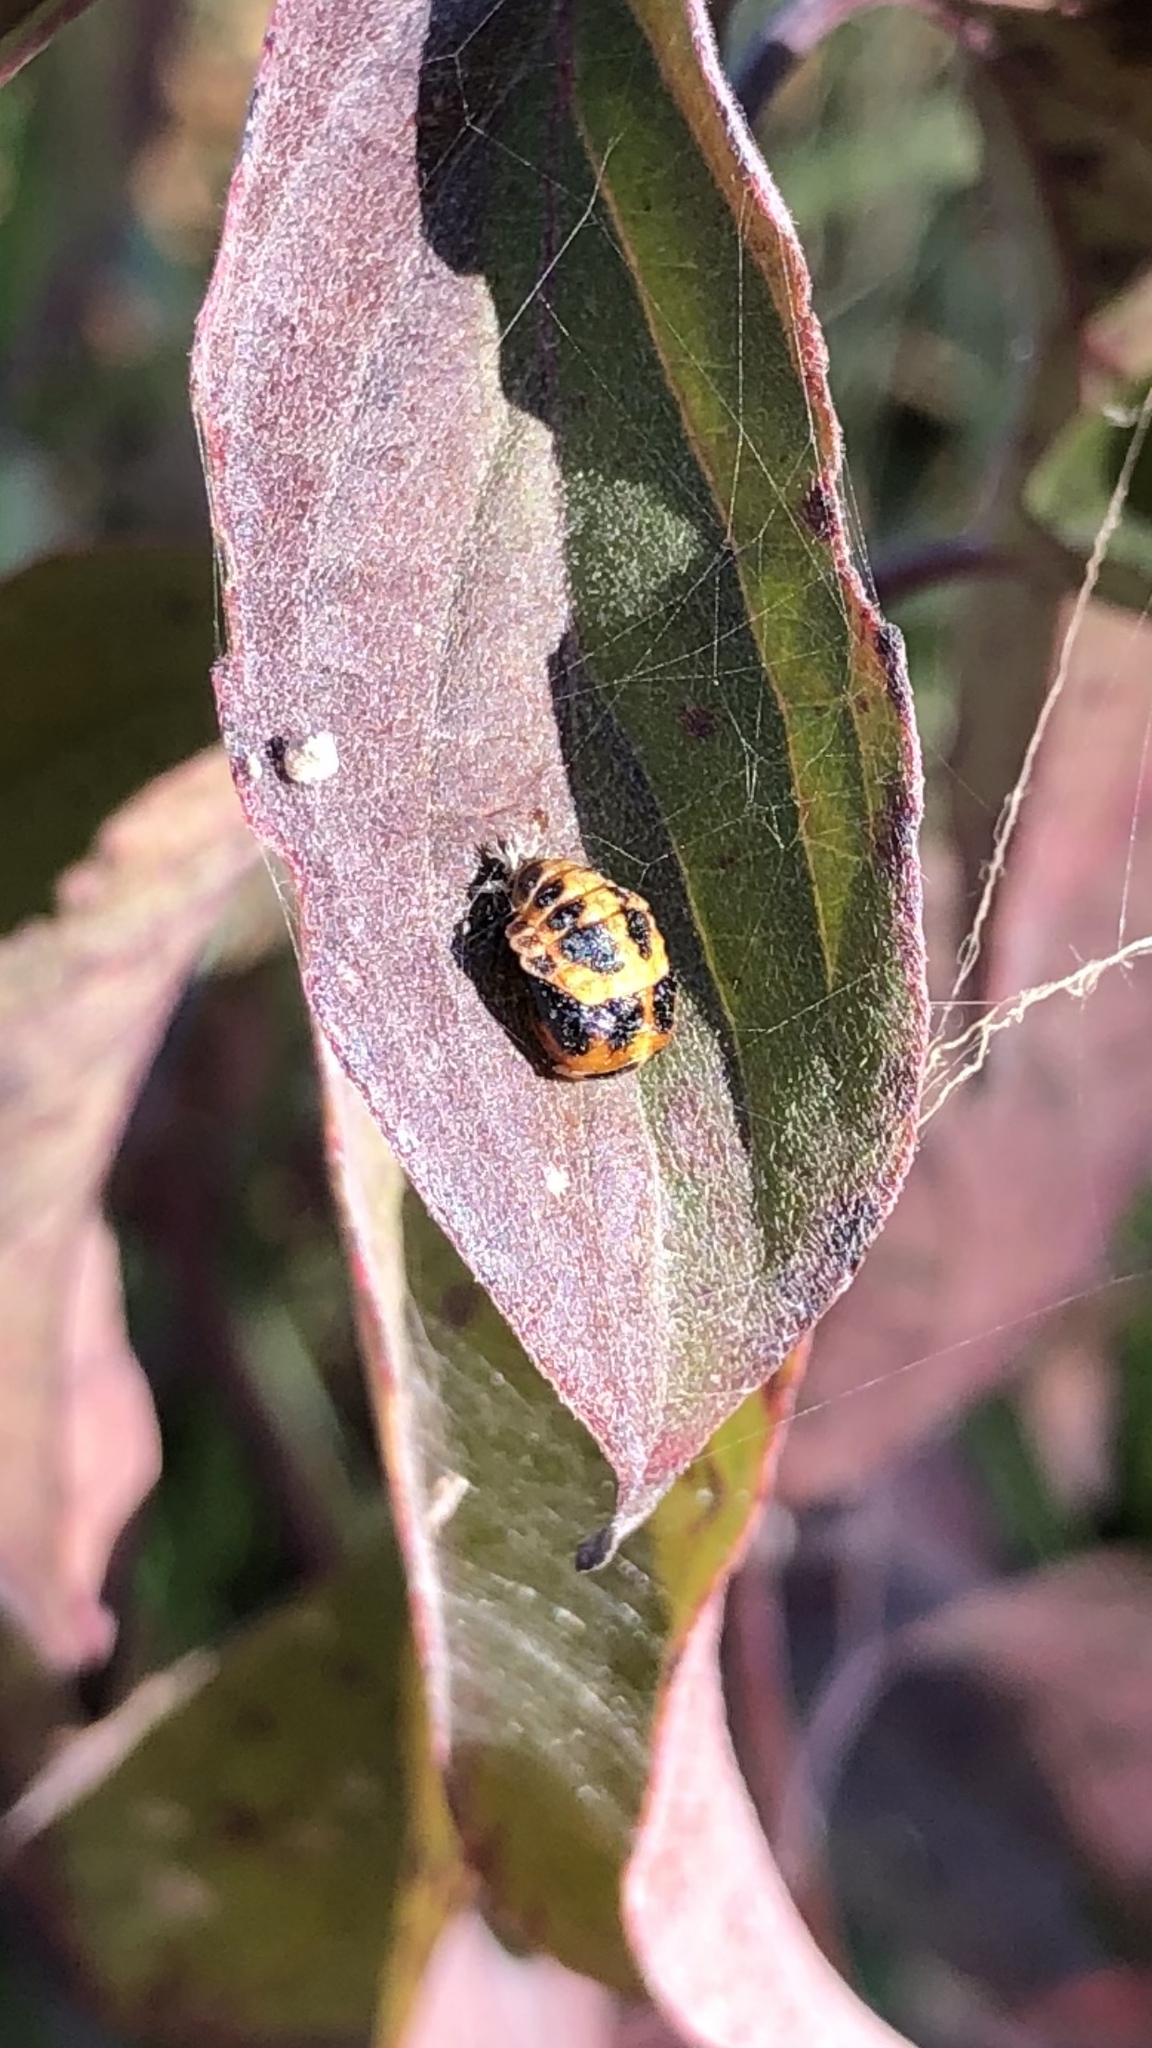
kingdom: Animalia
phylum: Arthropoda
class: Insecta
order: Coleoptera
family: Coccinellidae
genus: Harmonia
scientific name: Harmonia axyridis
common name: Harlequin ladybird
